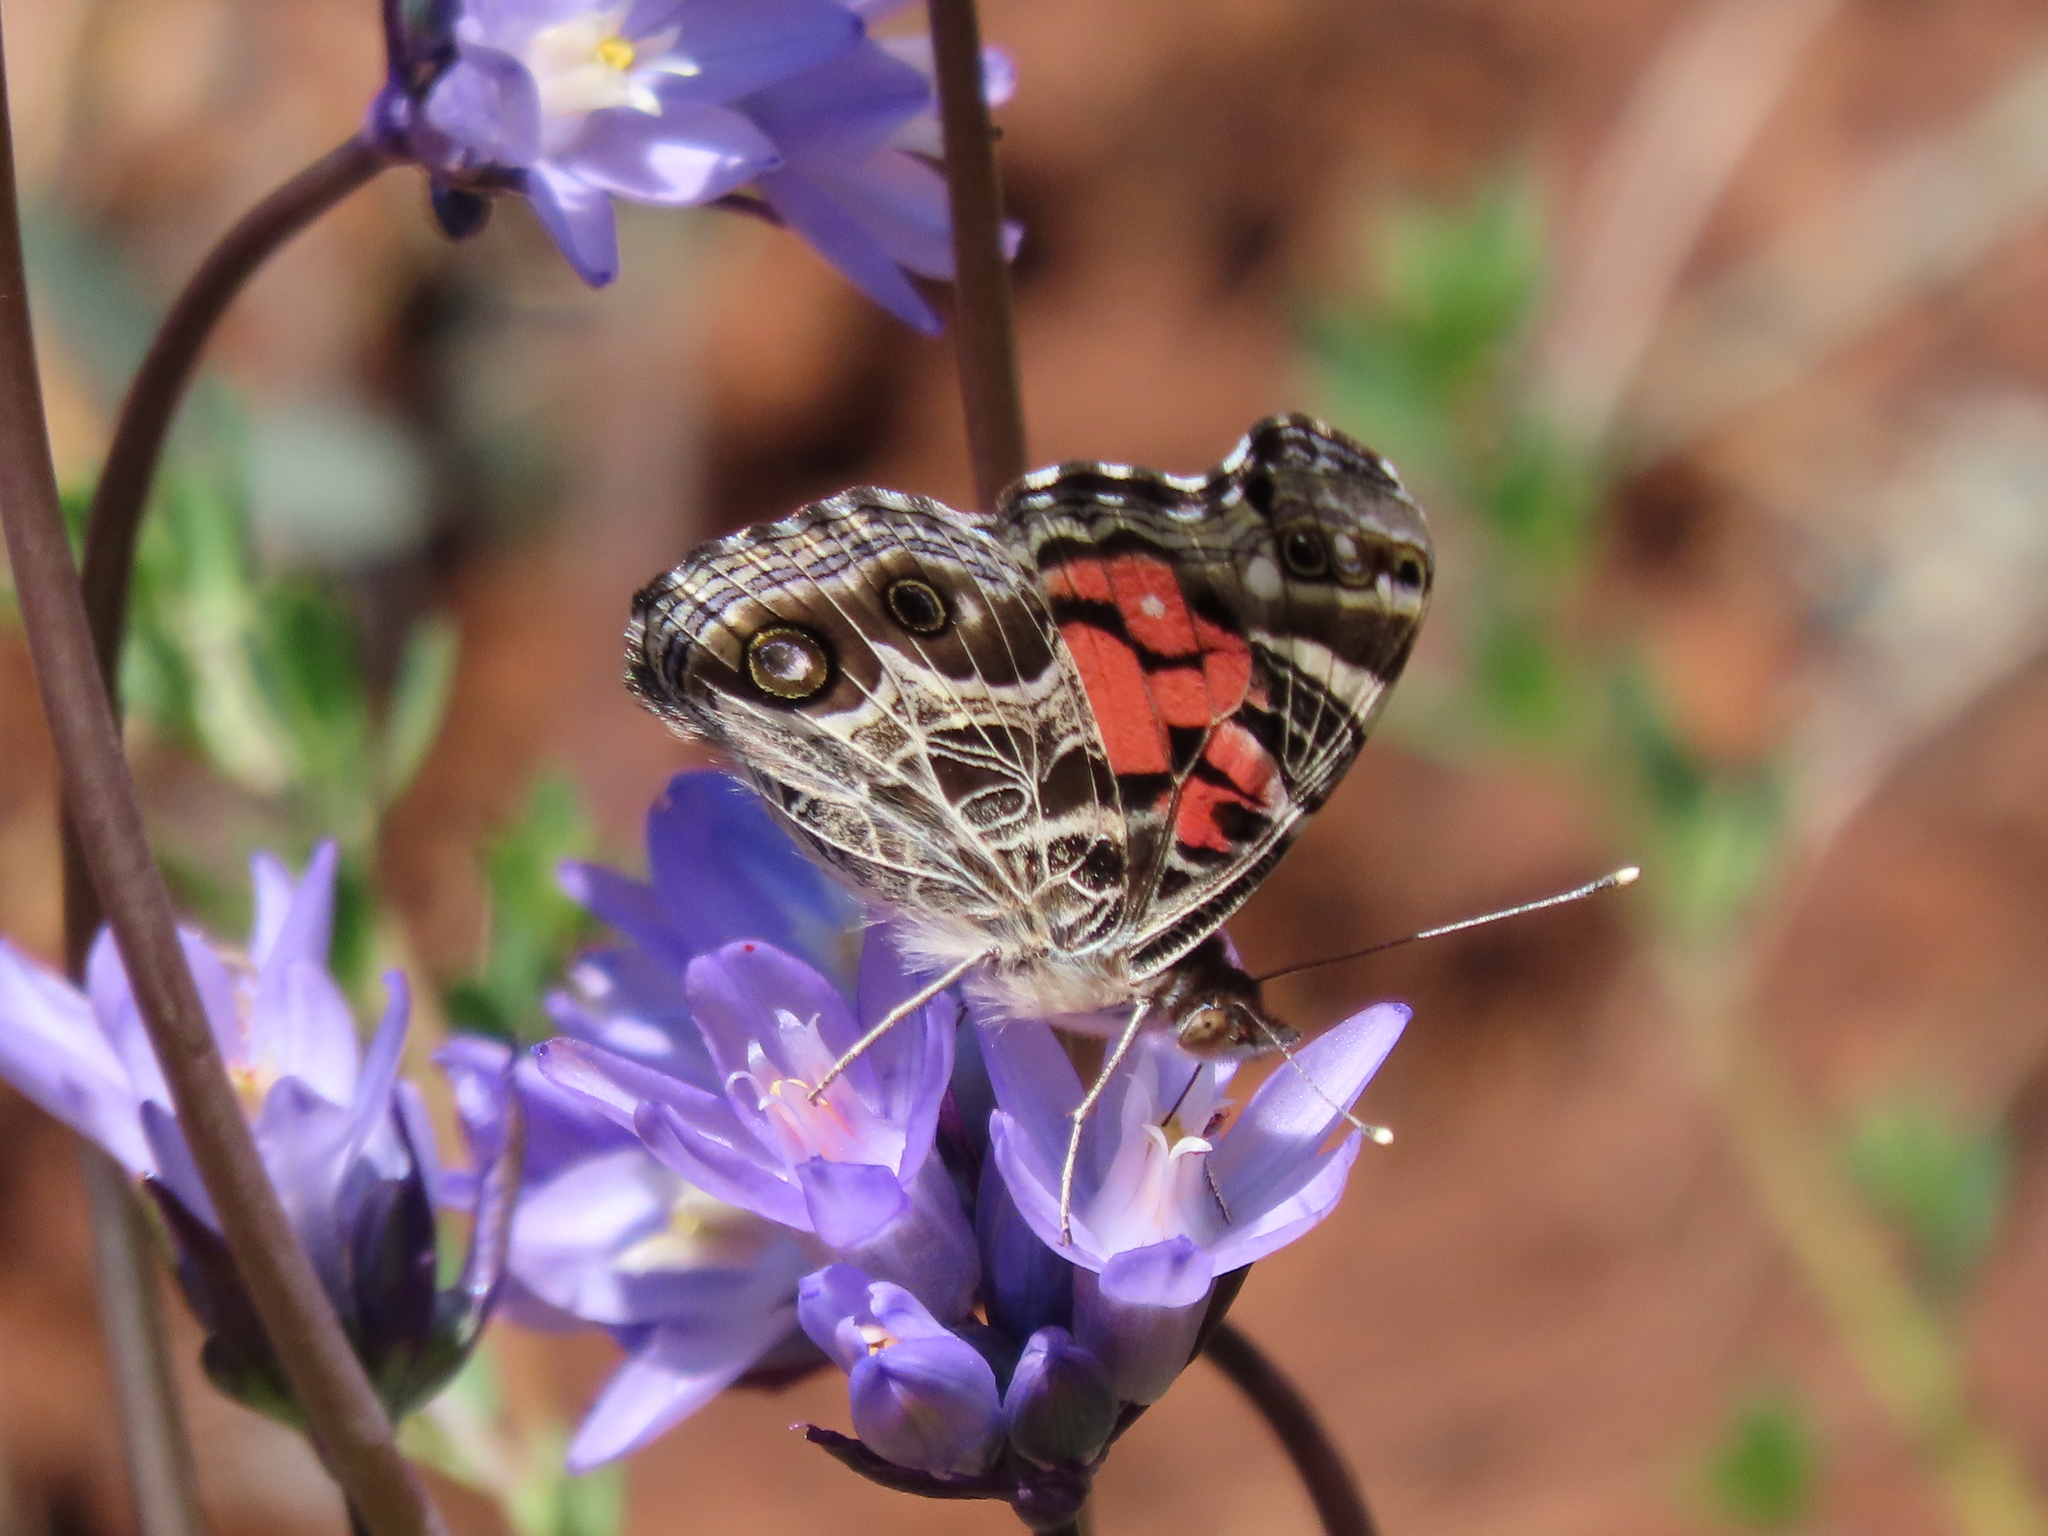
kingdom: Animalia
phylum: Arthropoda
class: Insecta
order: Lepidoptera
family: Nymphalidae
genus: Vanessa
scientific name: Vanessa virginiensis
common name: American lady
